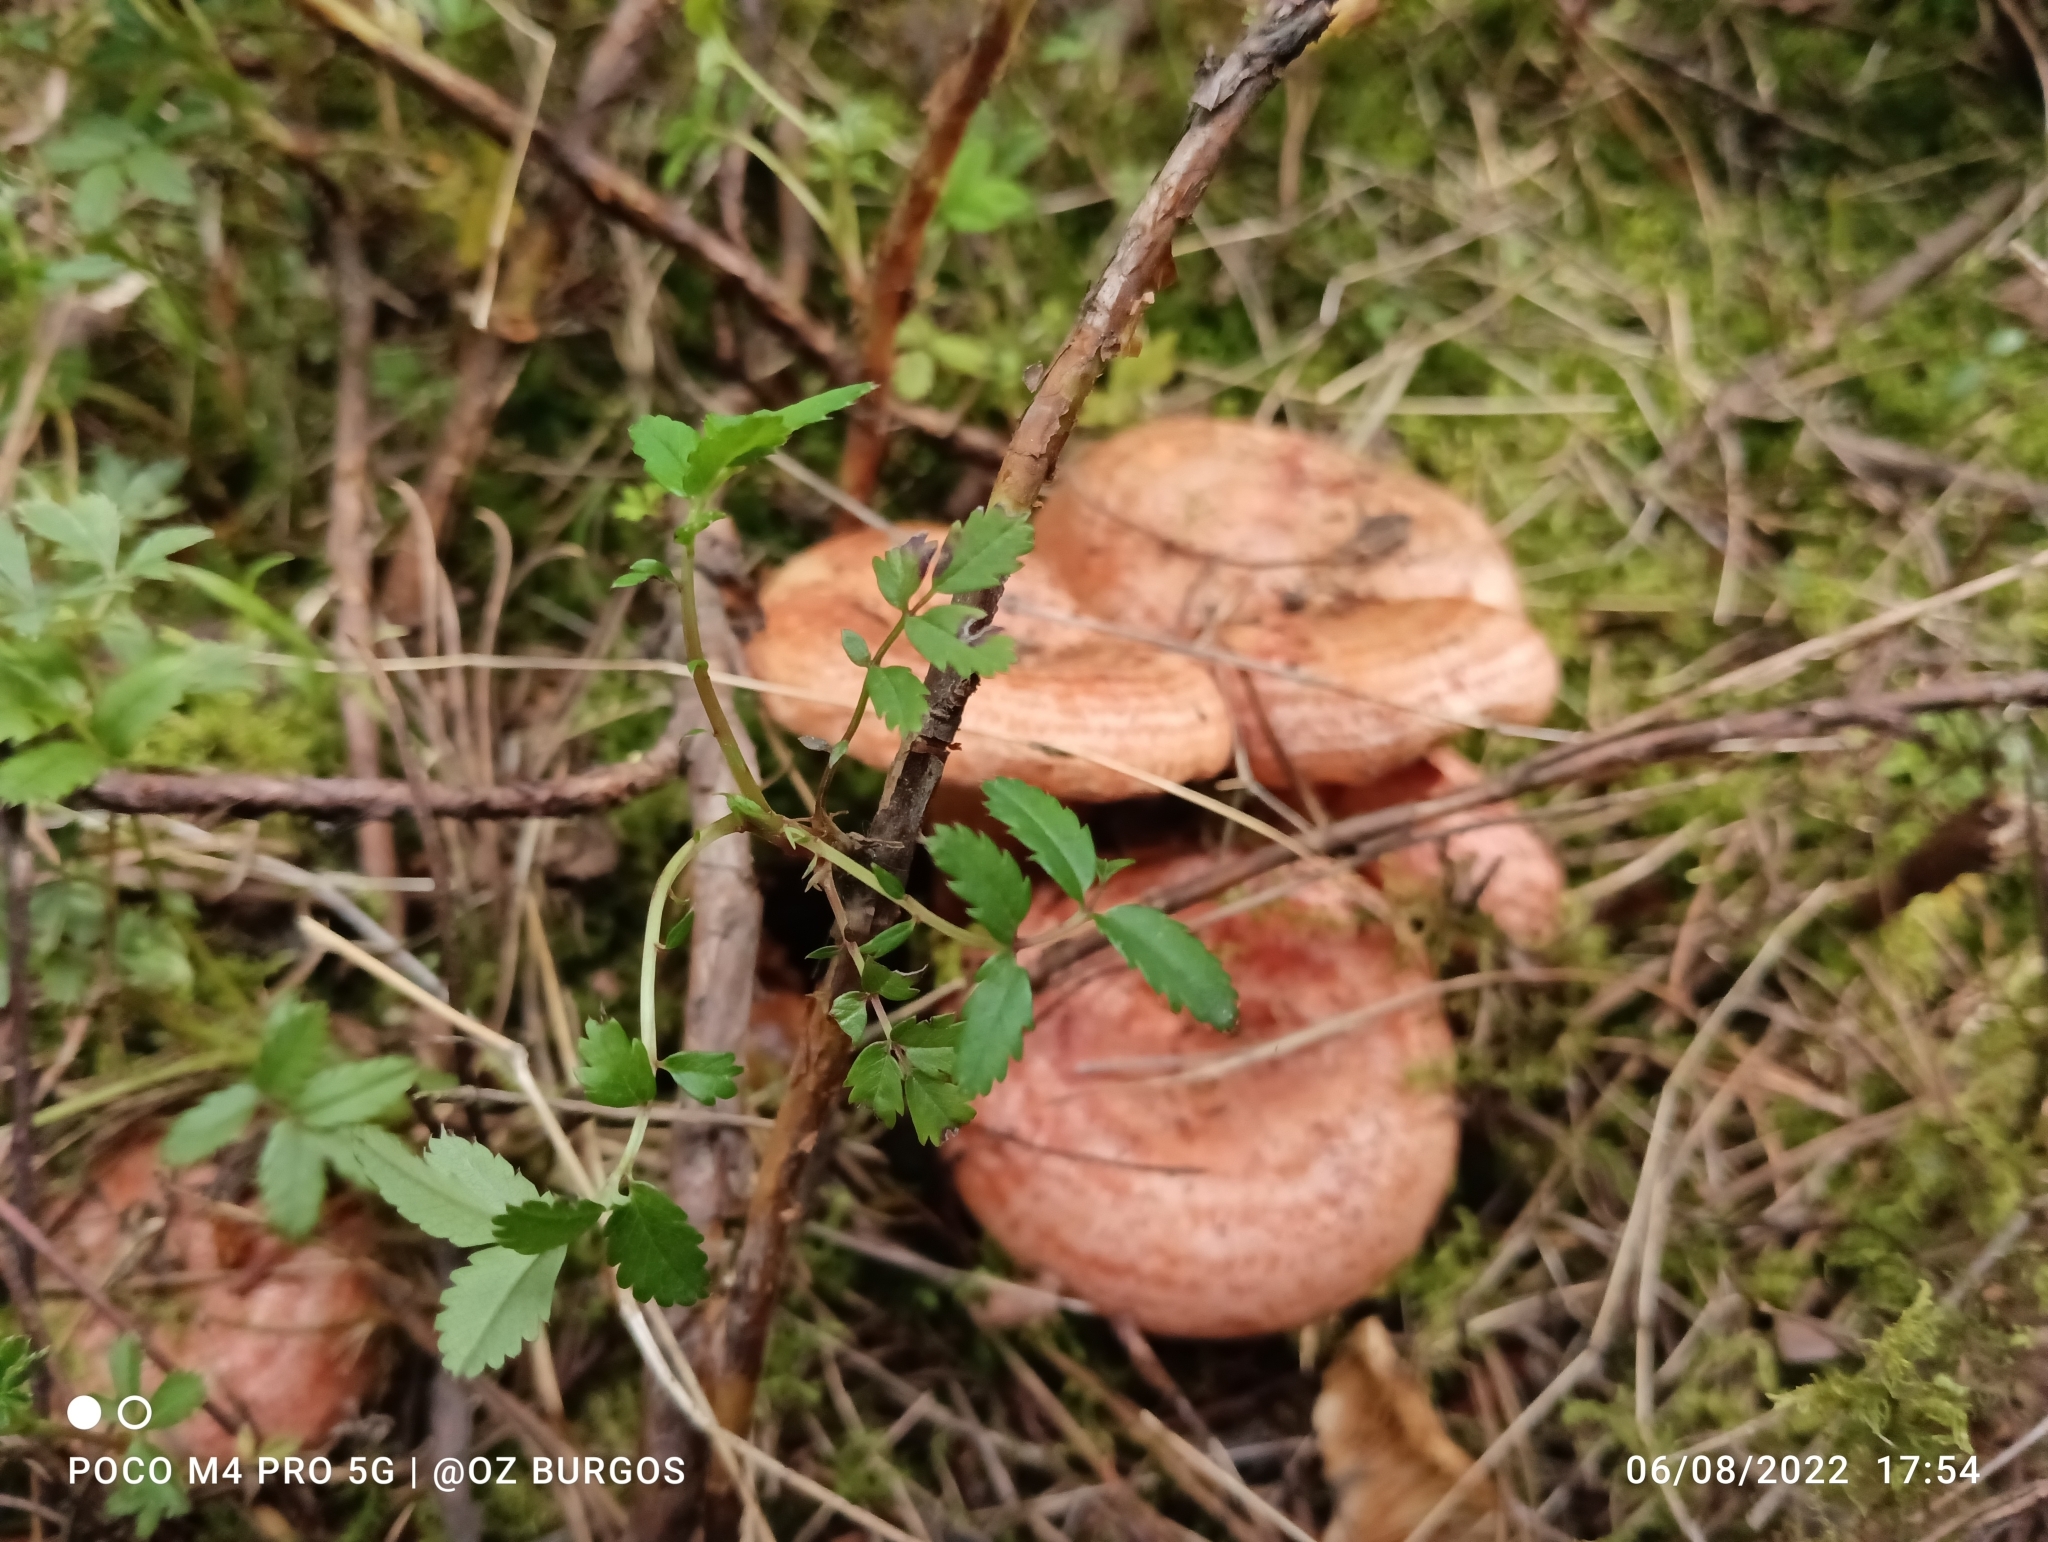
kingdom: Fungi
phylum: Basidiomycota
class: Agaricomycetes
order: Russulales
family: Russulaceae
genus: Lactarius
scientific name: Lactarius salmonicolor
